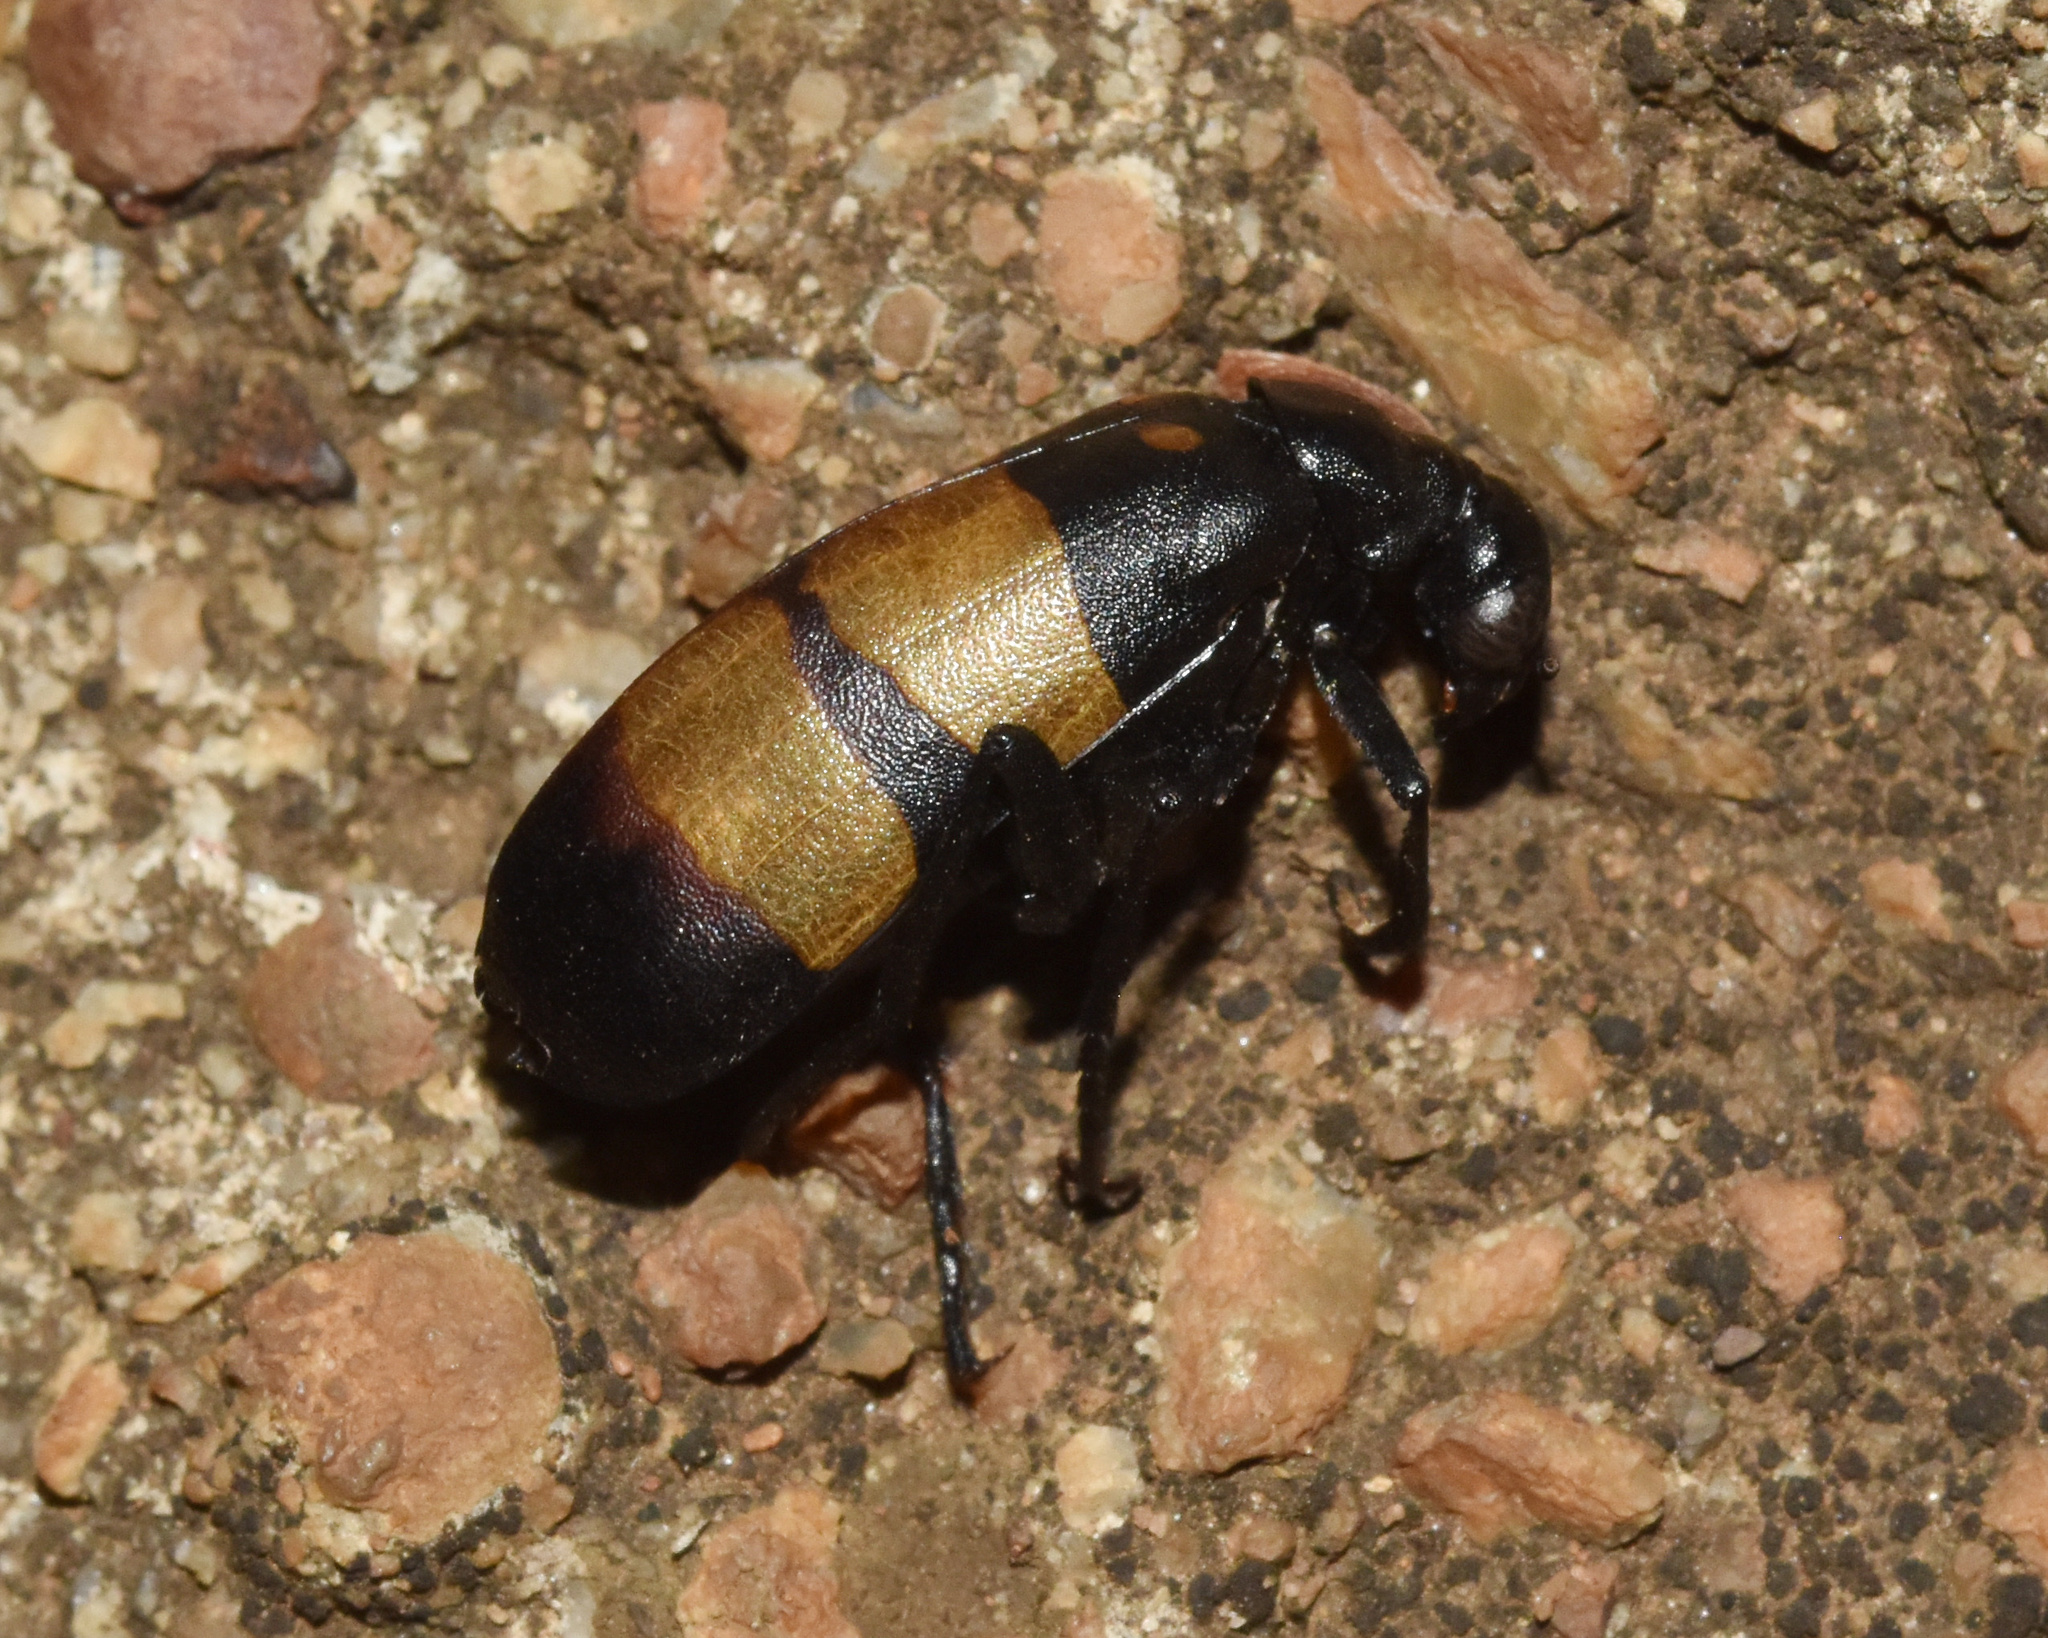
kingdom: Animalia
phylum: Arthropoda
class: Insecta
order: Coleoptera
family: Meloidae
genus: Hycleus
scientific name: Hycleus
